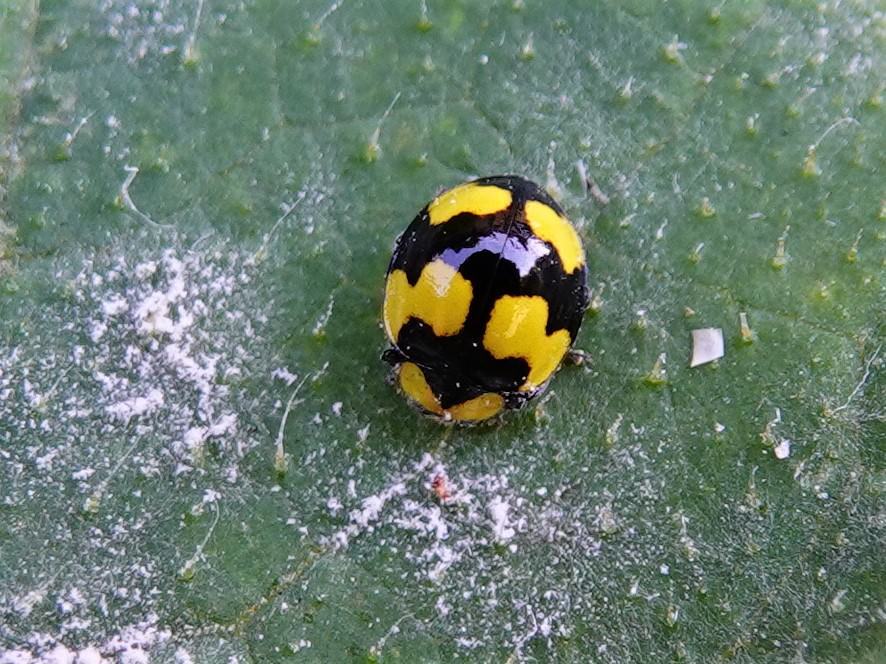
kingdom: Animalia
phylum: Arthropoda
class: Insecta
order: Coleoptera
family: Coccinellidae
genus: Illeis
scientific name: Illeis galbula
